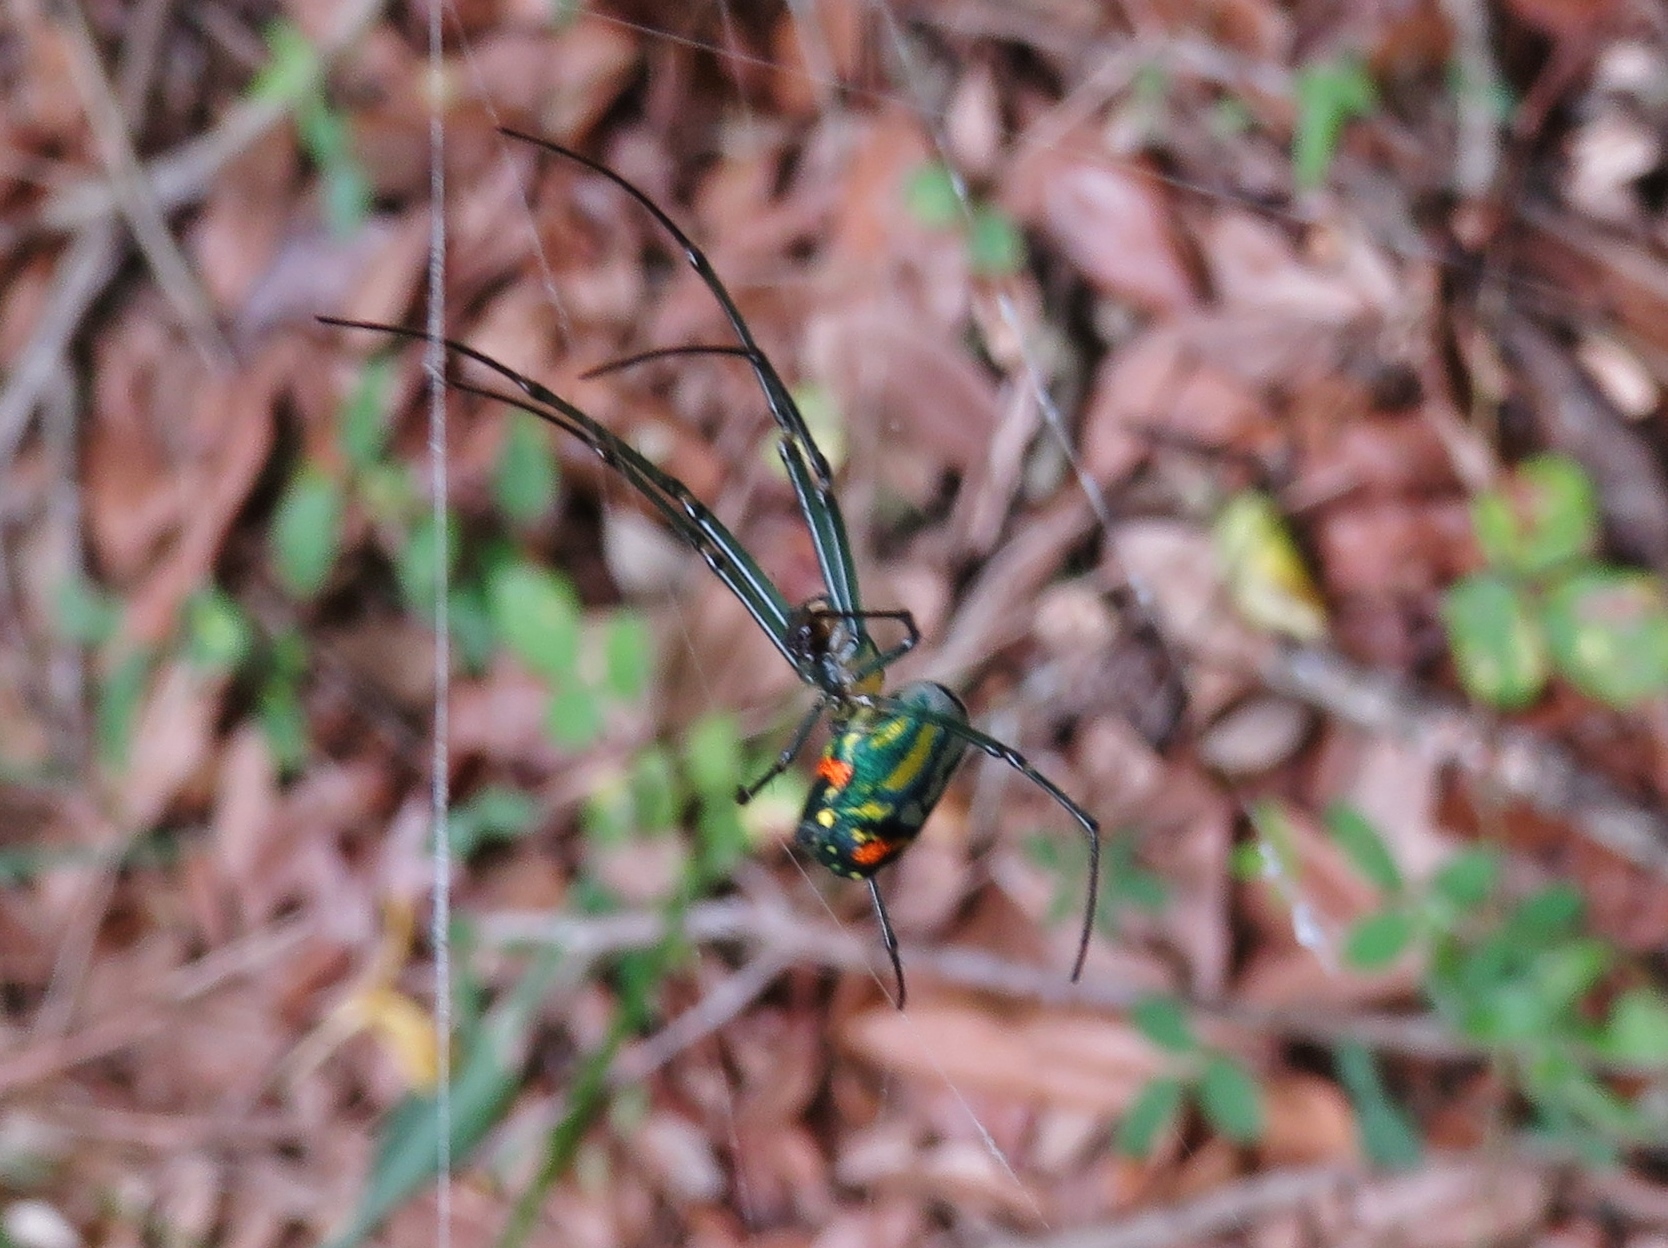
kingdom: Animalia
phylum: Arthropoda
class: Arachnida
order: Araneae
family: Tetragnathidae
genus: Leucauge
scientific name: Leucauge argyrobapta
